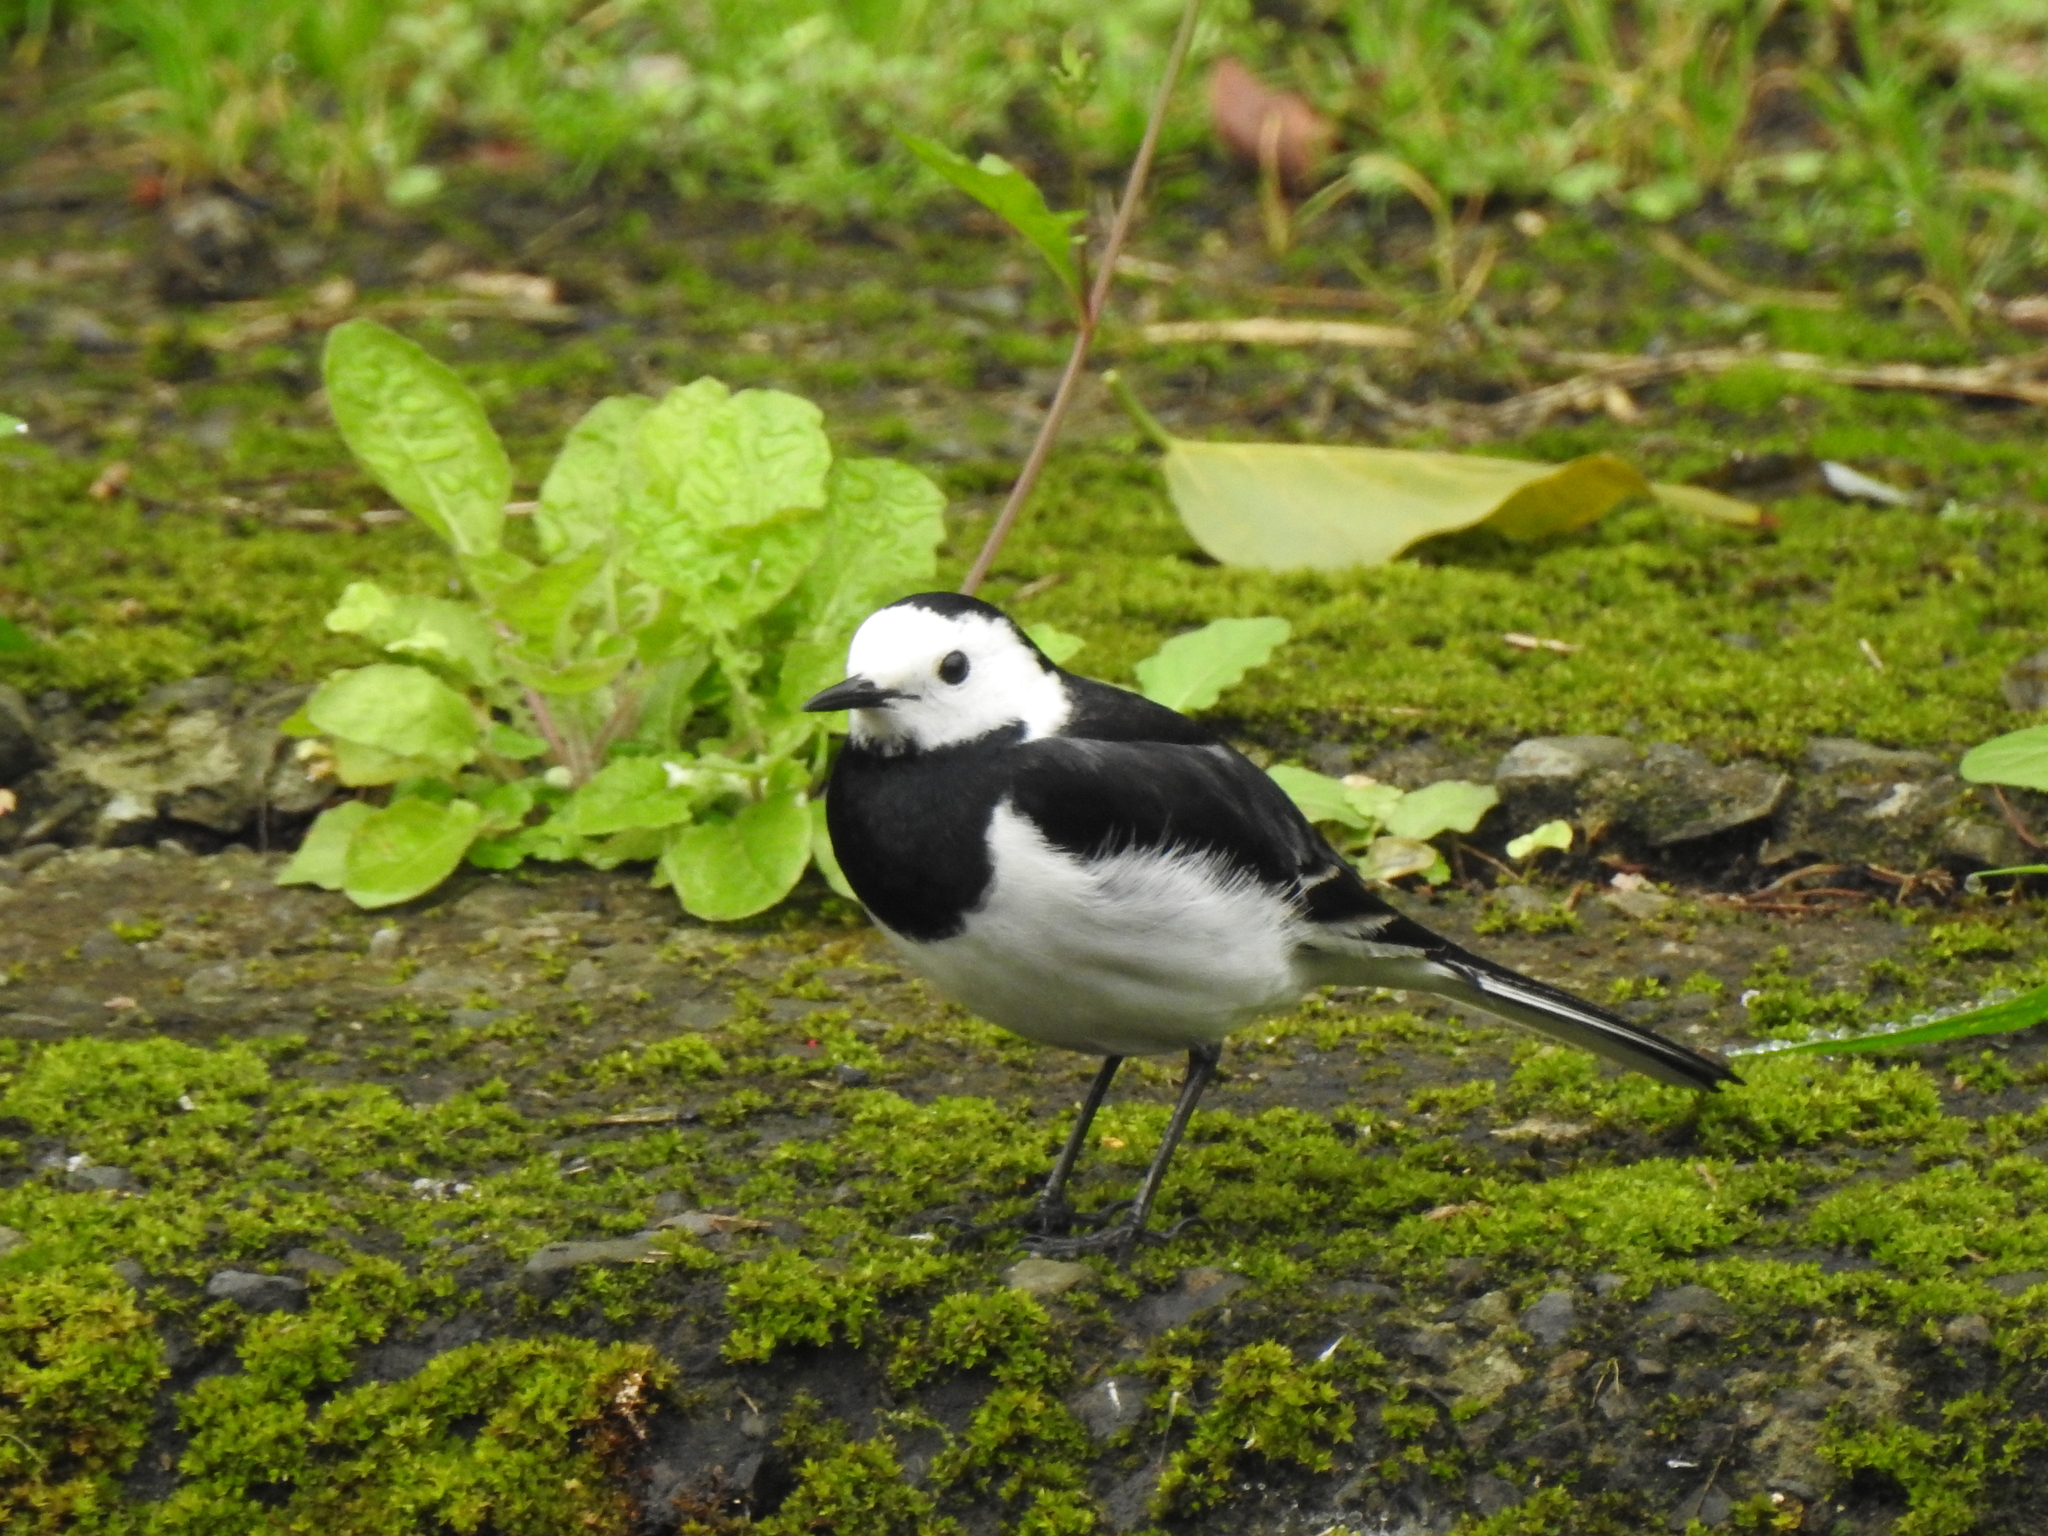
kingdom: Animalia
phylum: Chordata
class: Aves
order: Passeriformes
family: Motacillidae
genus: Motacilla
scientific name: Motacilla alba
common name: White wagtail
